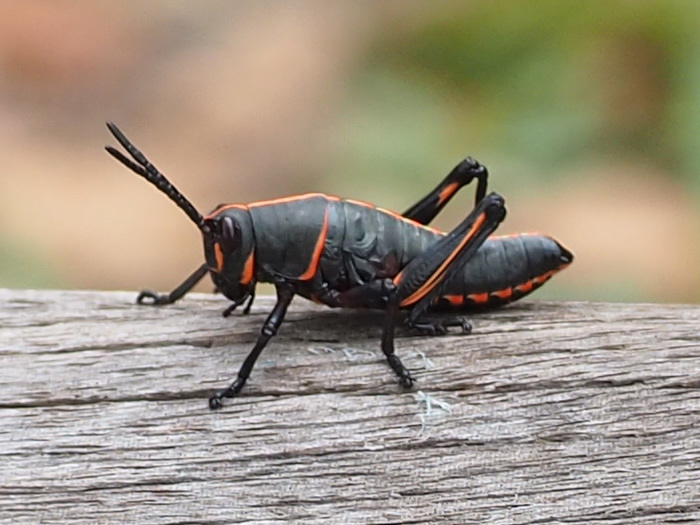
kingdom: Animalia
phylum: Arthropoda
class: Insecta
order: Orthoptera
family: Romaleidae
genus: Romalea
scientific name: Romalea microptera
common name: Eastern lubber grasshopper
